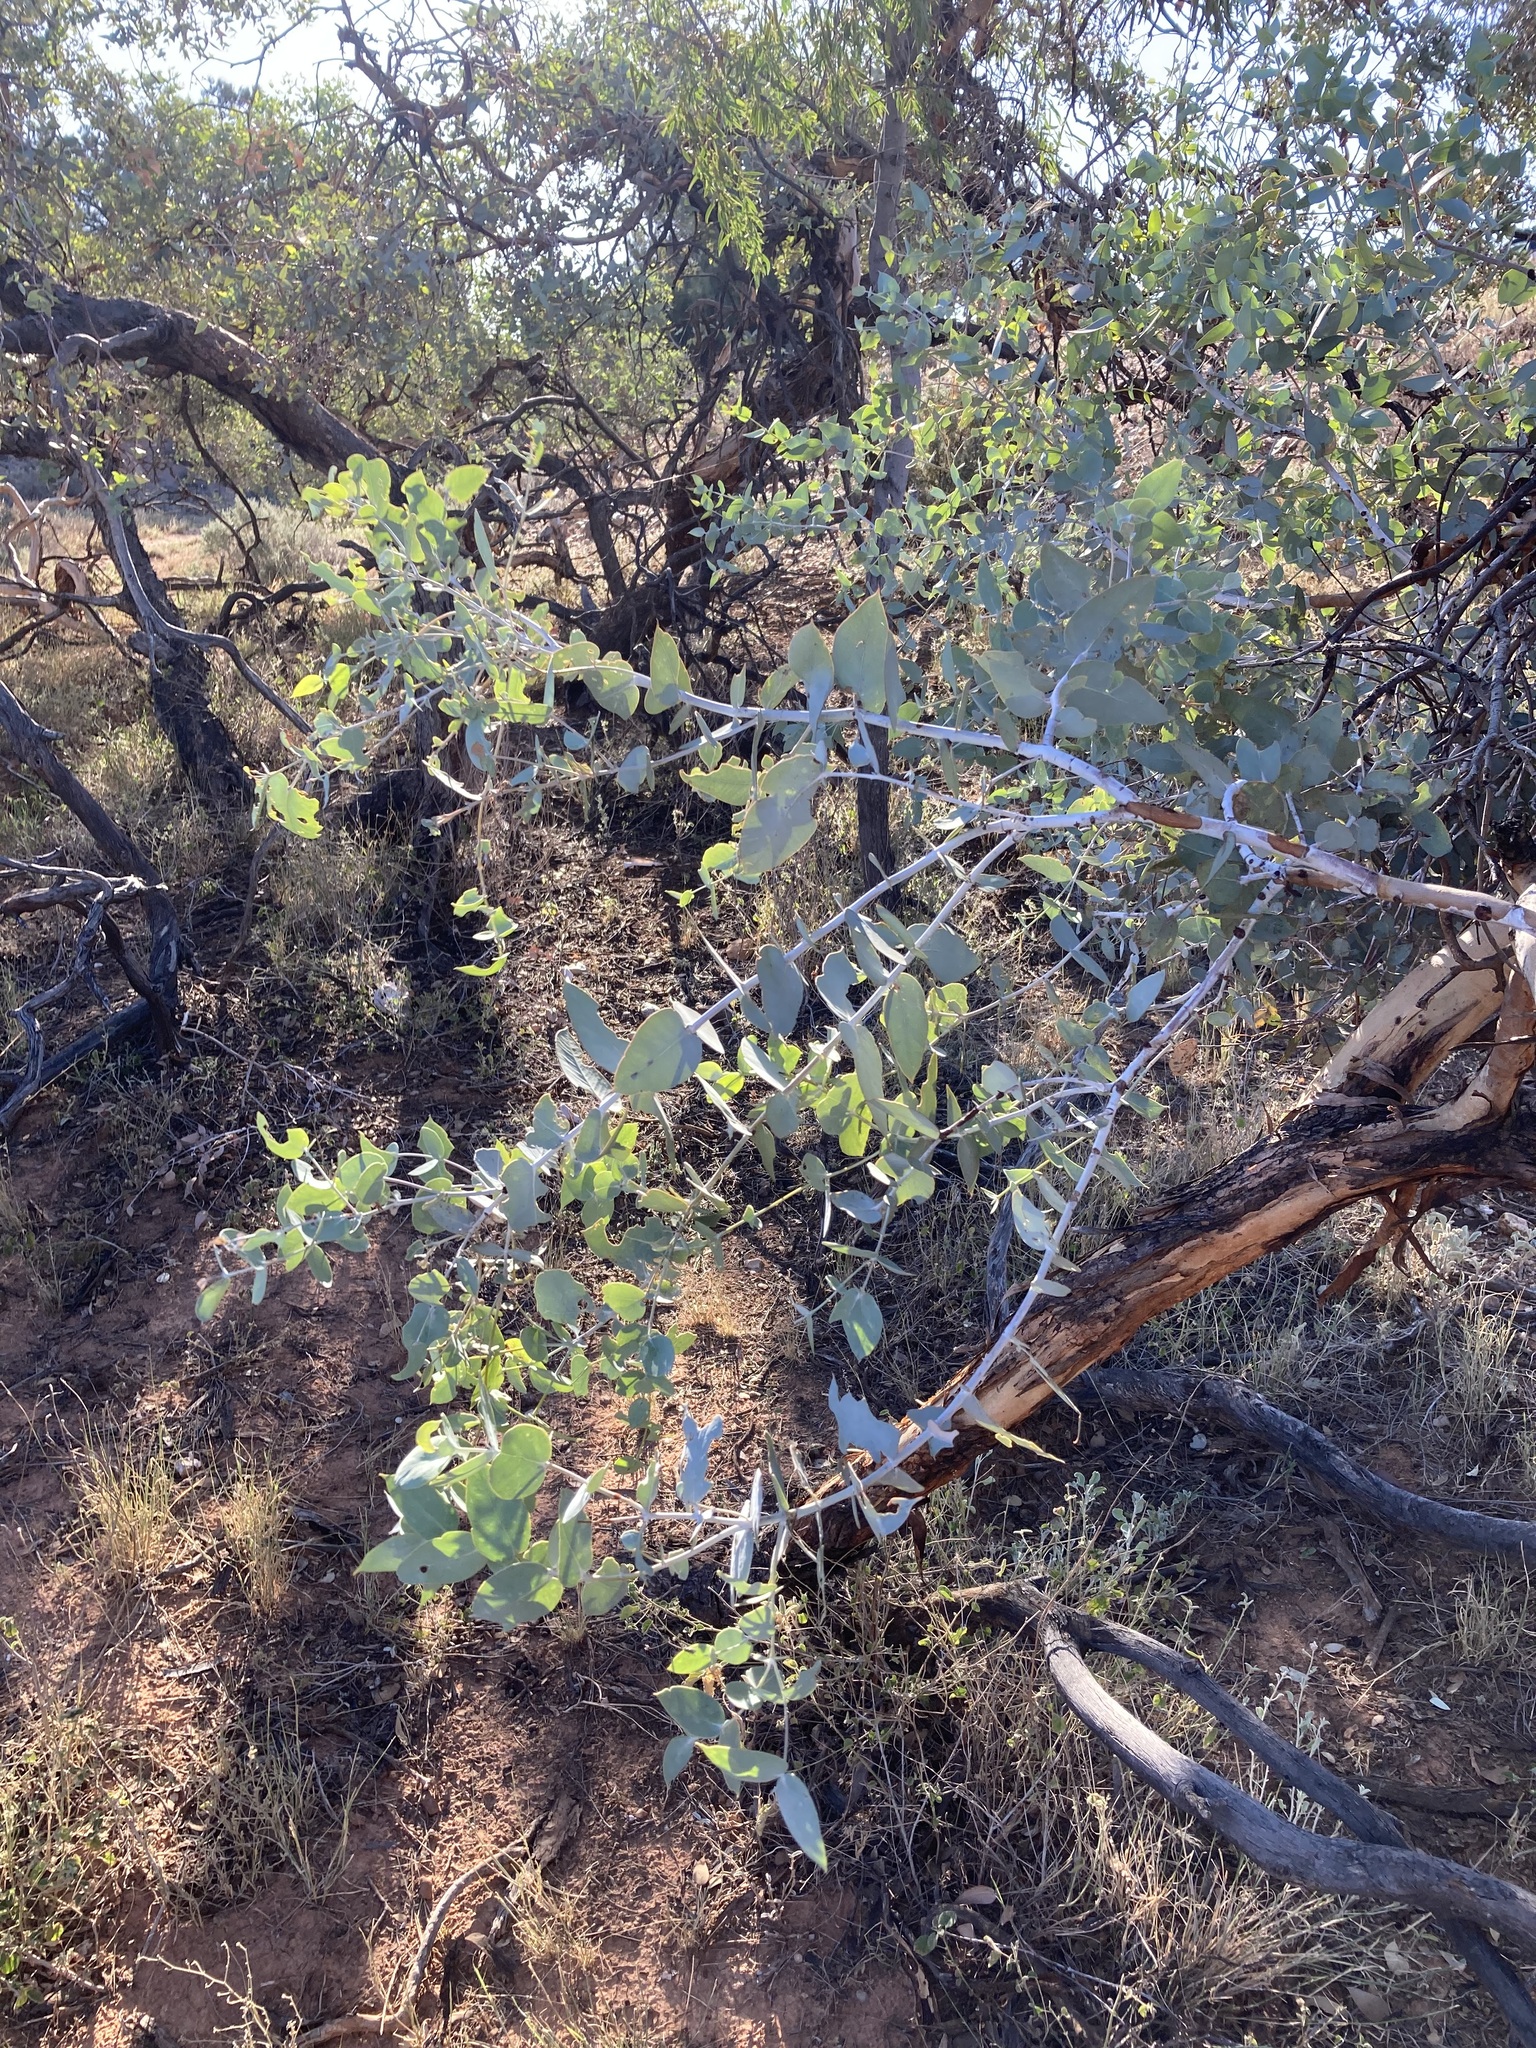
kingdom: Plantae
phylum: Tracheophyta
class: Magnoliopsida
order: Myrtales
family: Myrtaceae
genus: Eucalyptus
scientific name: Eucalyptus gillii
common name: Broken hill mallee
